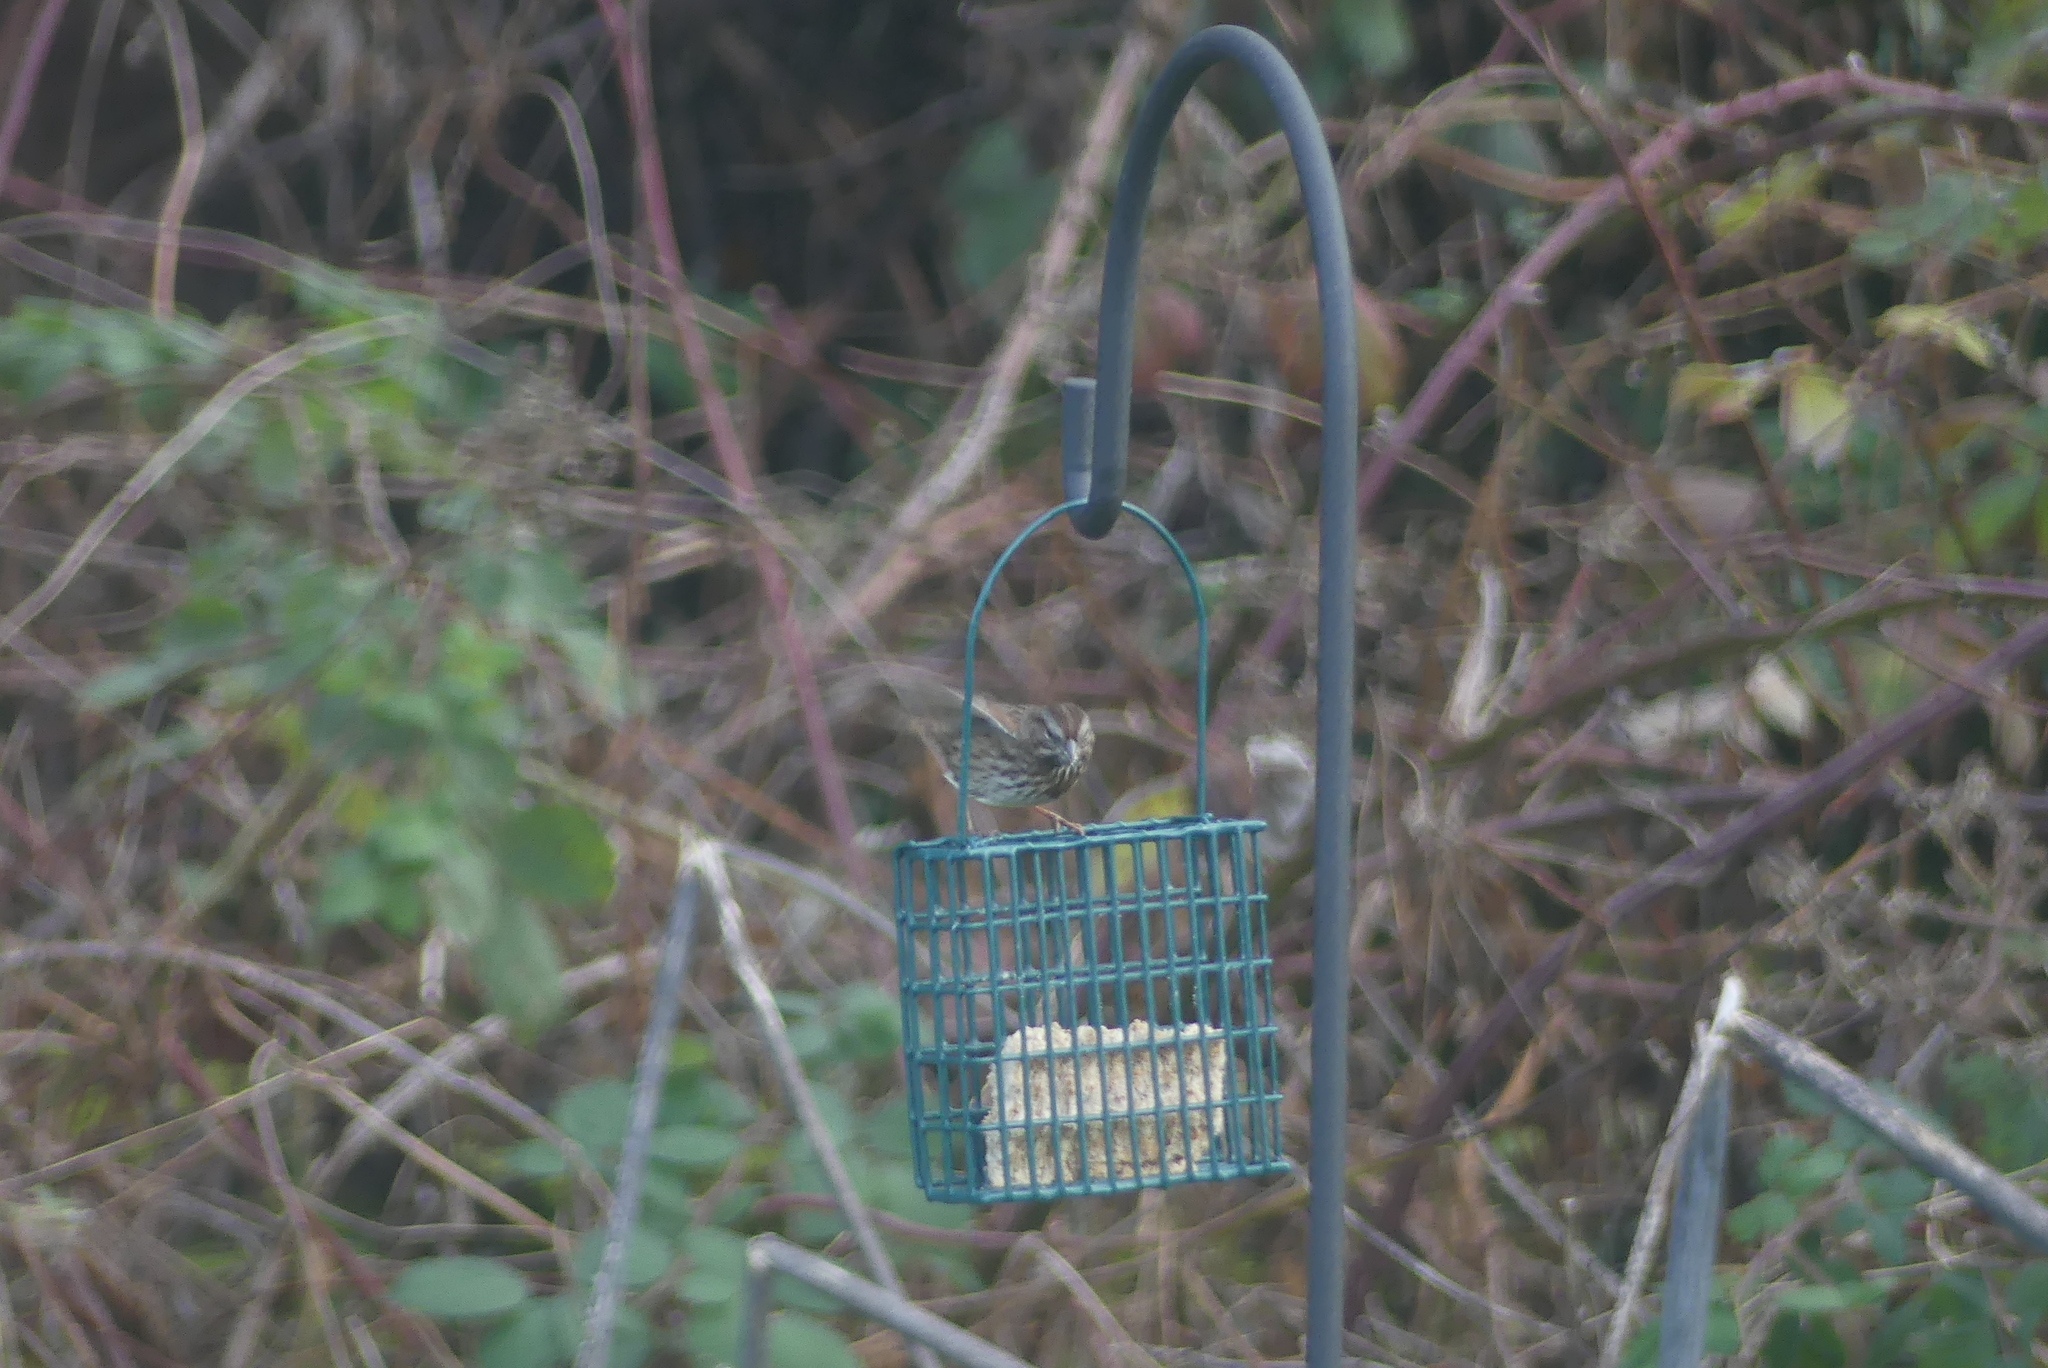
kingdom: Animalia
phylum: Chordata
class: Aves
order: Passeriformes
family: Passerellidae
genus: Melospiza
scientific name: Melospiza melodia
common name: Song sparrow
